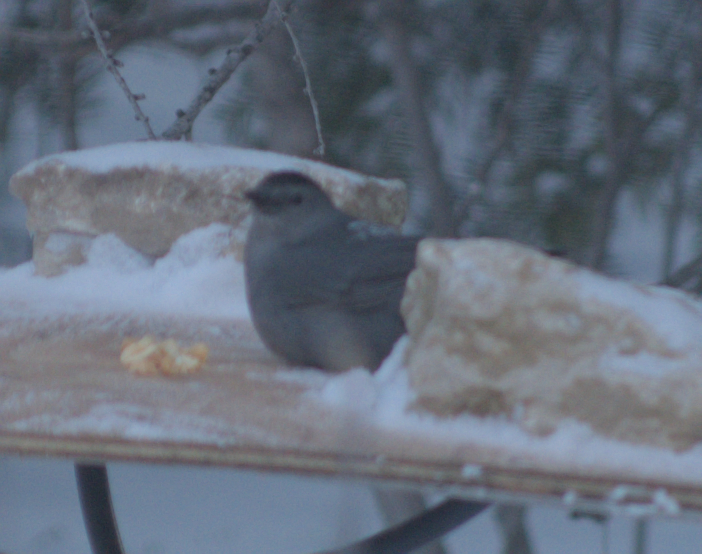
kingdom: Animalia
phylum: Chordata
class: Aves
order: Passeriformes
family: Mimidae
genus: Dumetella
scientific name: Dumetella carolinensis
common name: Gray catbird
